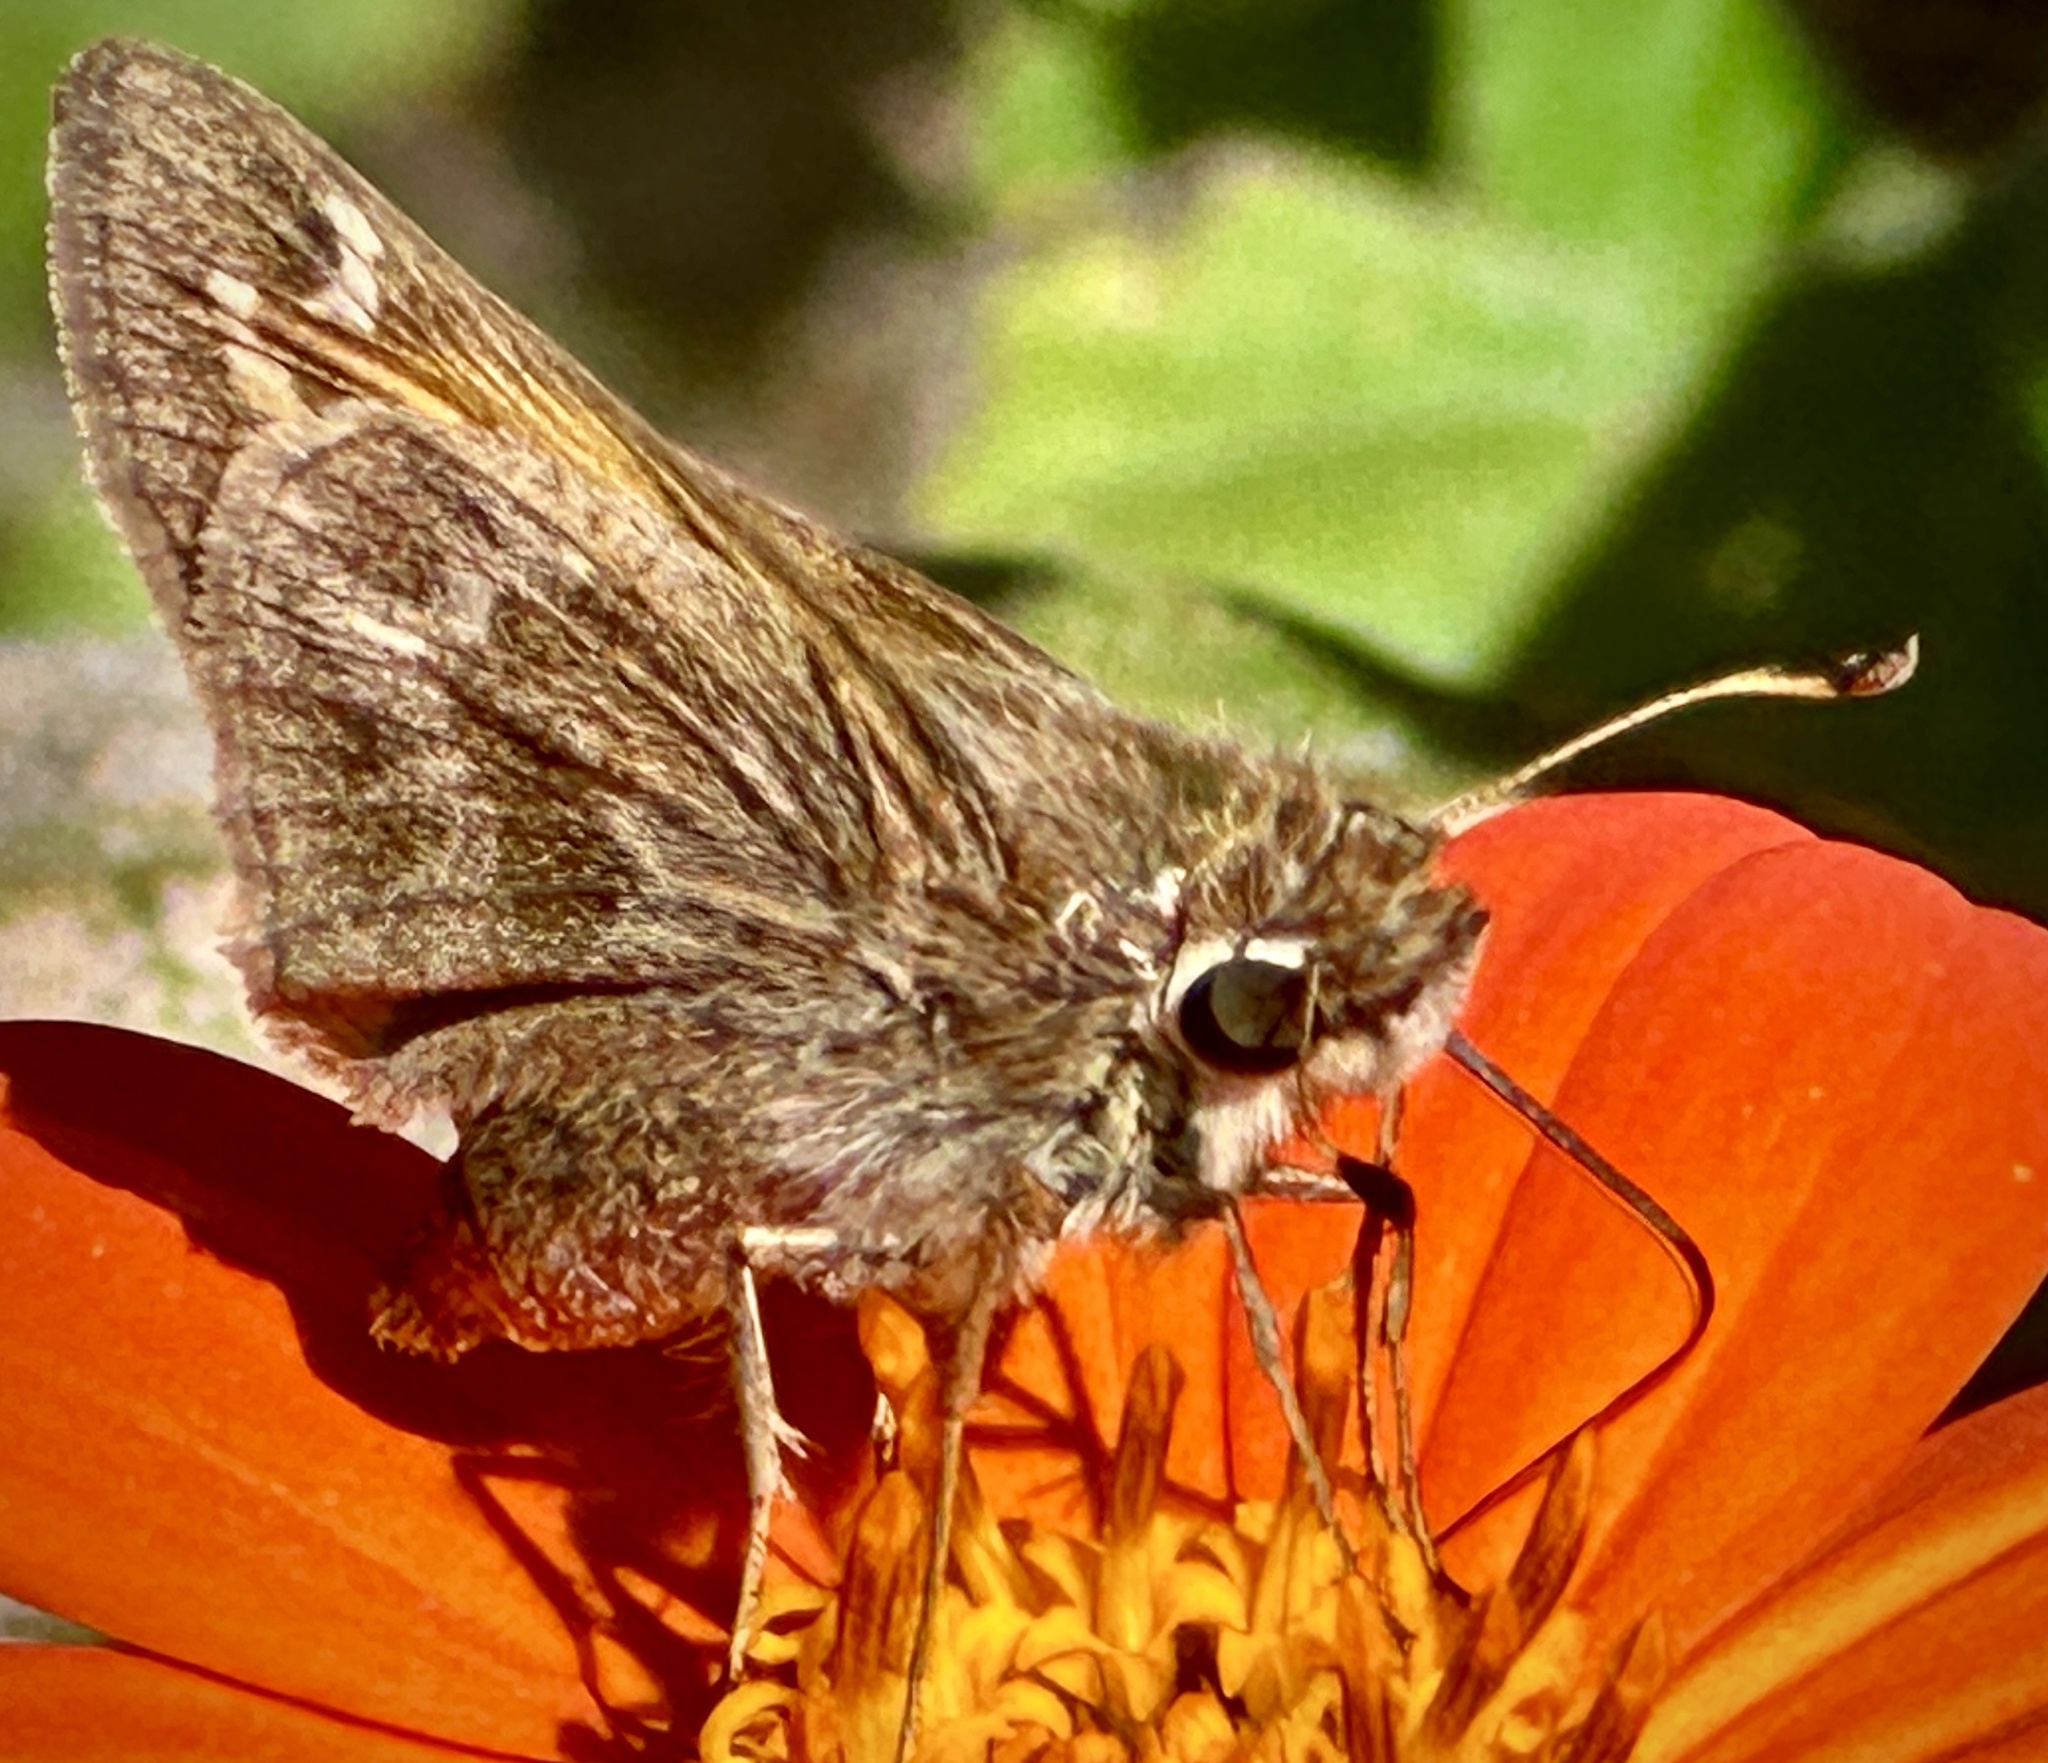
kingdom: Animalia
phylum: Arthropoda
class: Insecta
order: Lepidoptera
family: Hesperiidae
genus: Atalopedes
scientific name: Atalopedes
